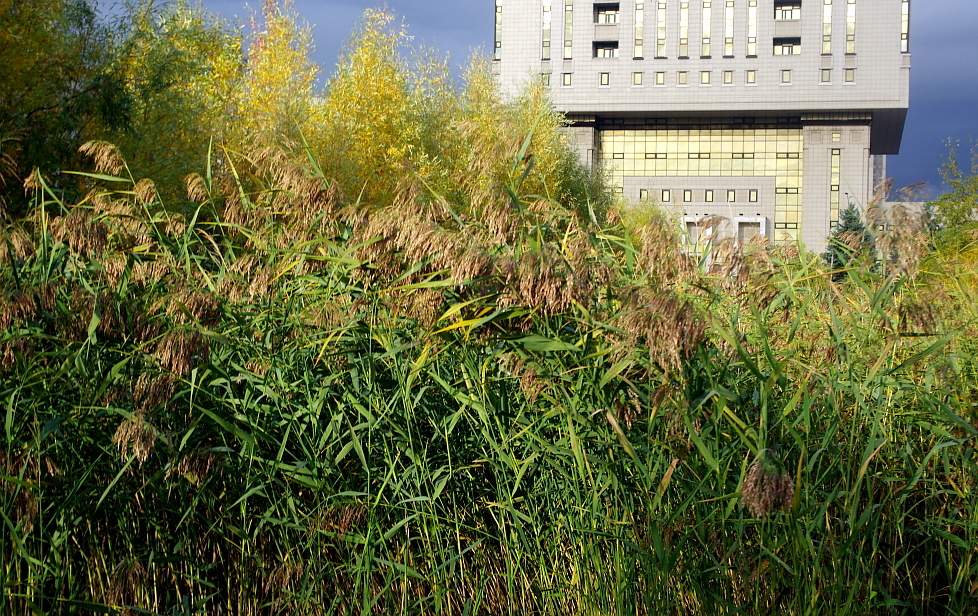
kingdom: Plantae
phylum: Tracheophyta
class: Liliopsida
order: Poales
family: Poaceae
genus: Phragmites
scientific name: Phragmites australis
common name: Common reed
